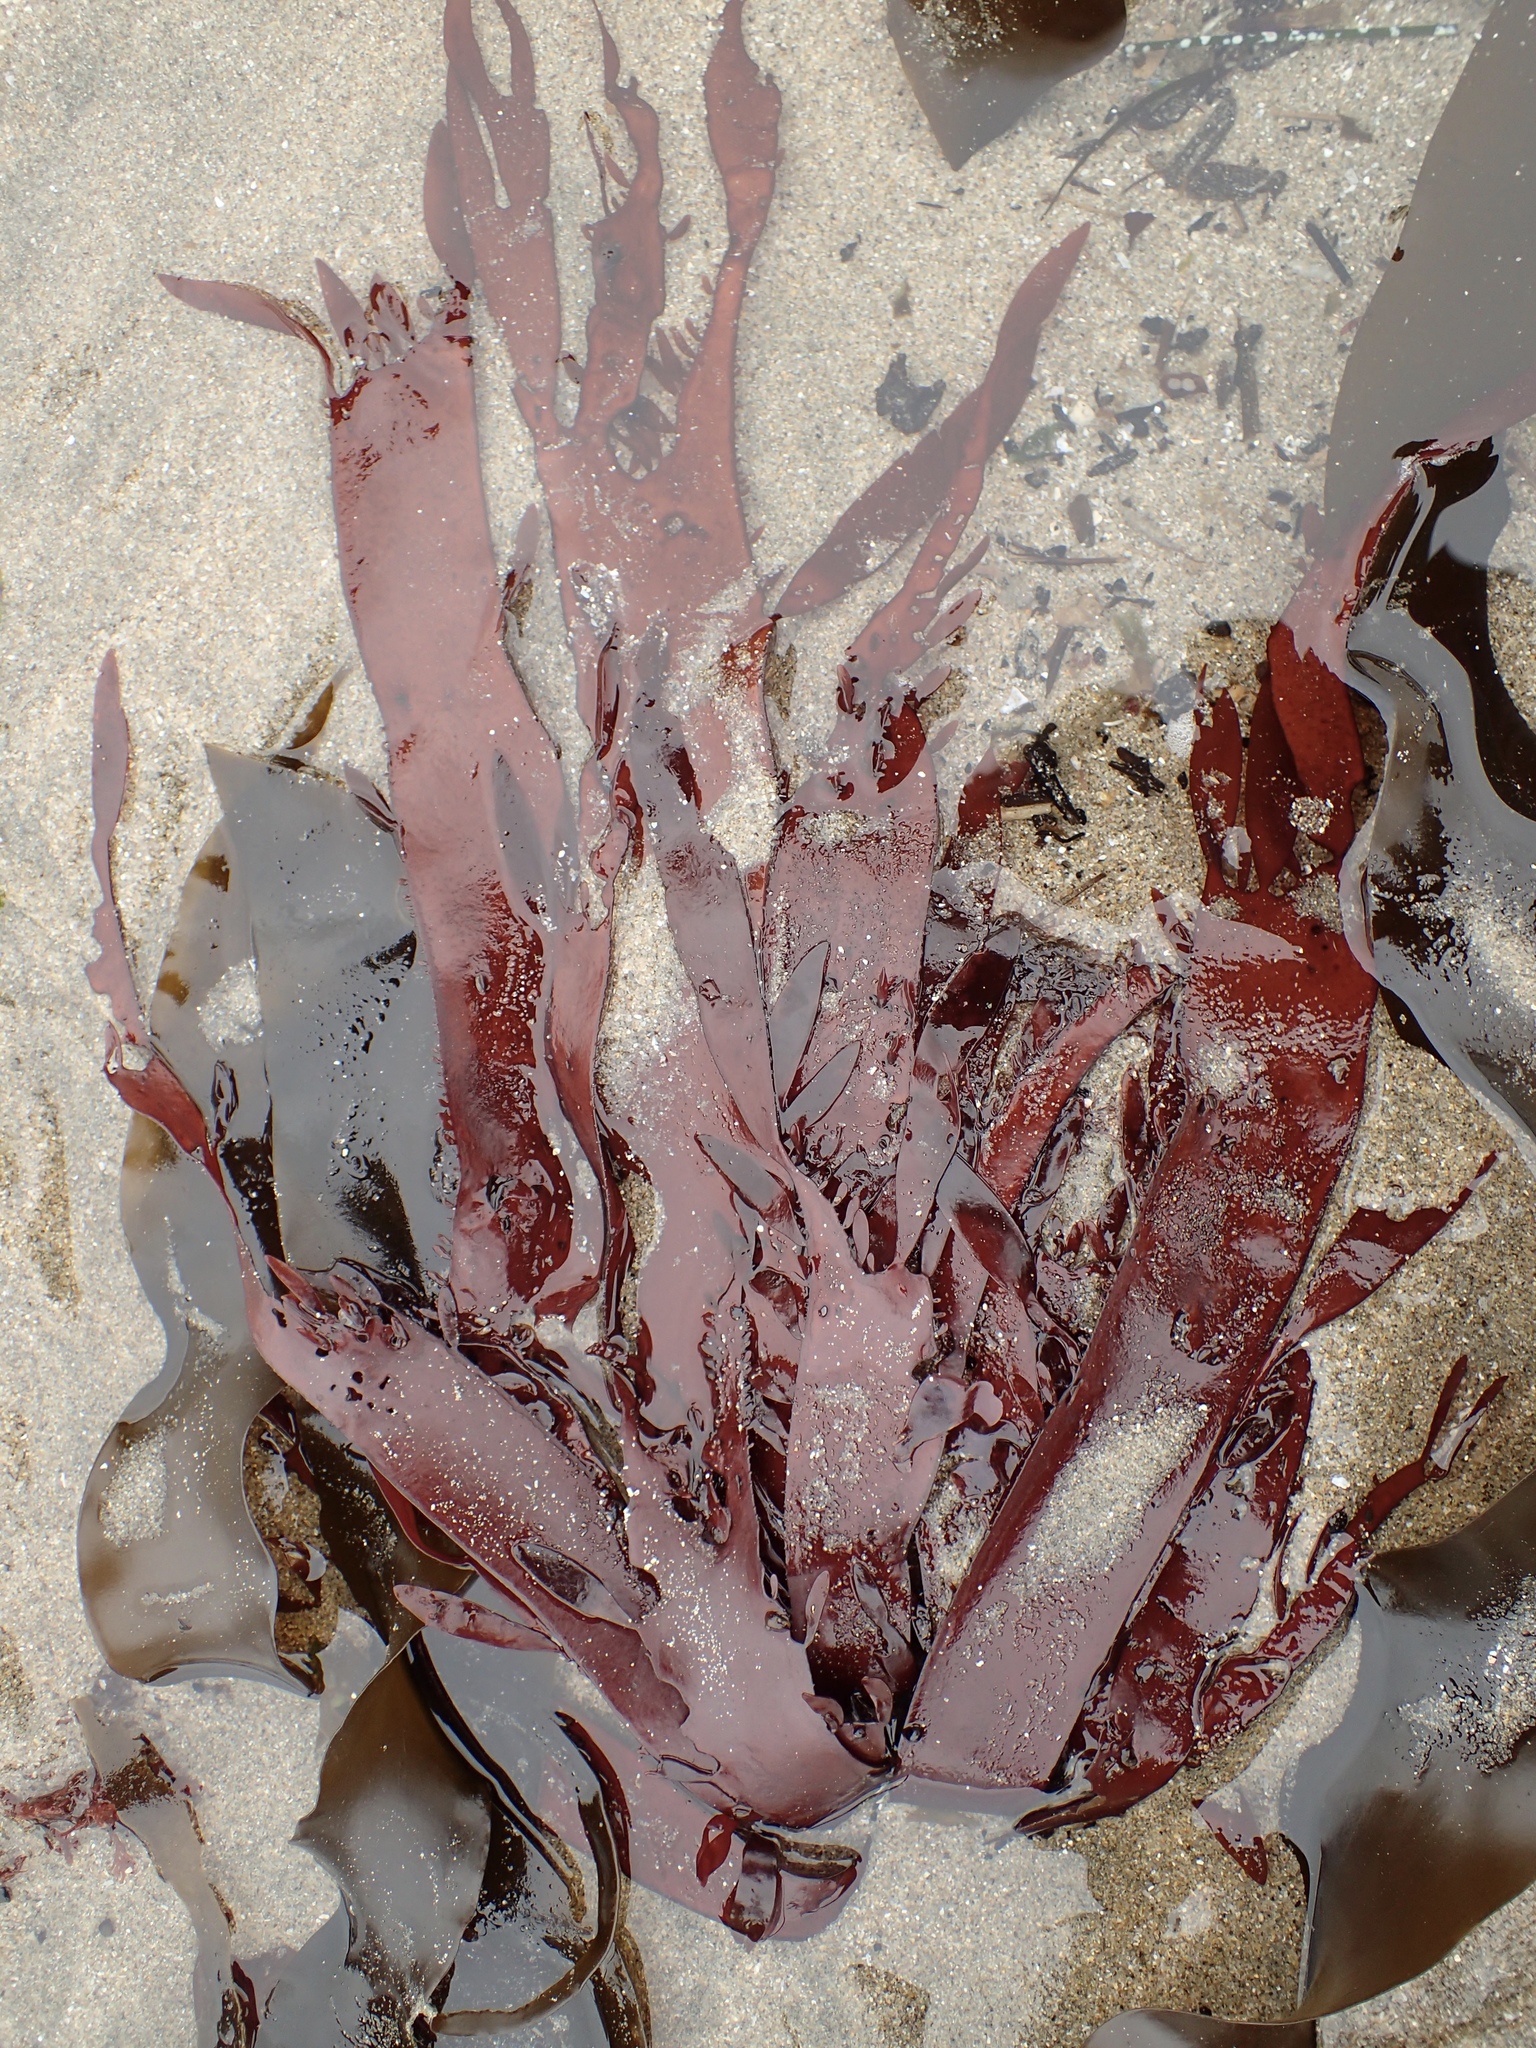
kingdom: Plantae
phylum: Rhodophyta
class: Florideophyceae
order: Halymeniales
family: Halymeniaceae
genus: Grateloupia
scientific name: Grateloupia Prionitis sternbergii
